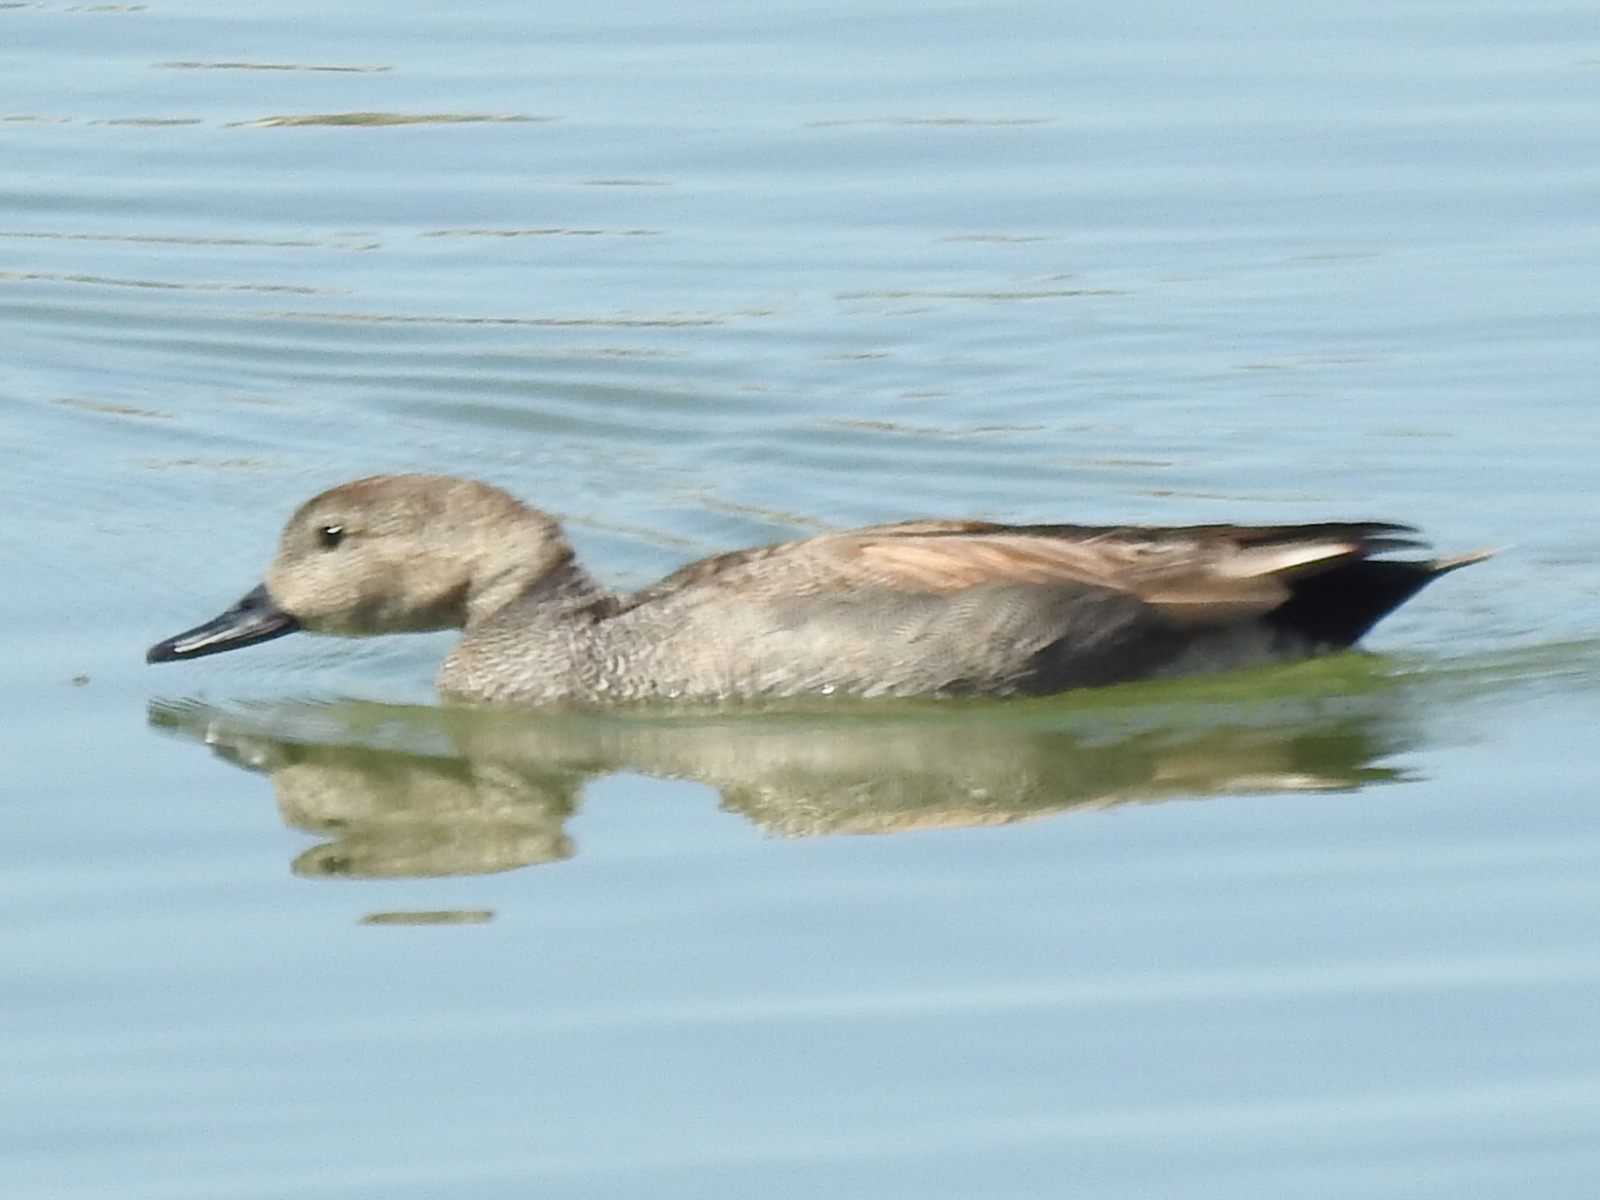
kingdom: Animalia
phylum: Chordata
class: Aves
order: Anseriformes
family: Anatidae
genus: Mareca
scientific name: Mareca strepera
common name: Gadwall
